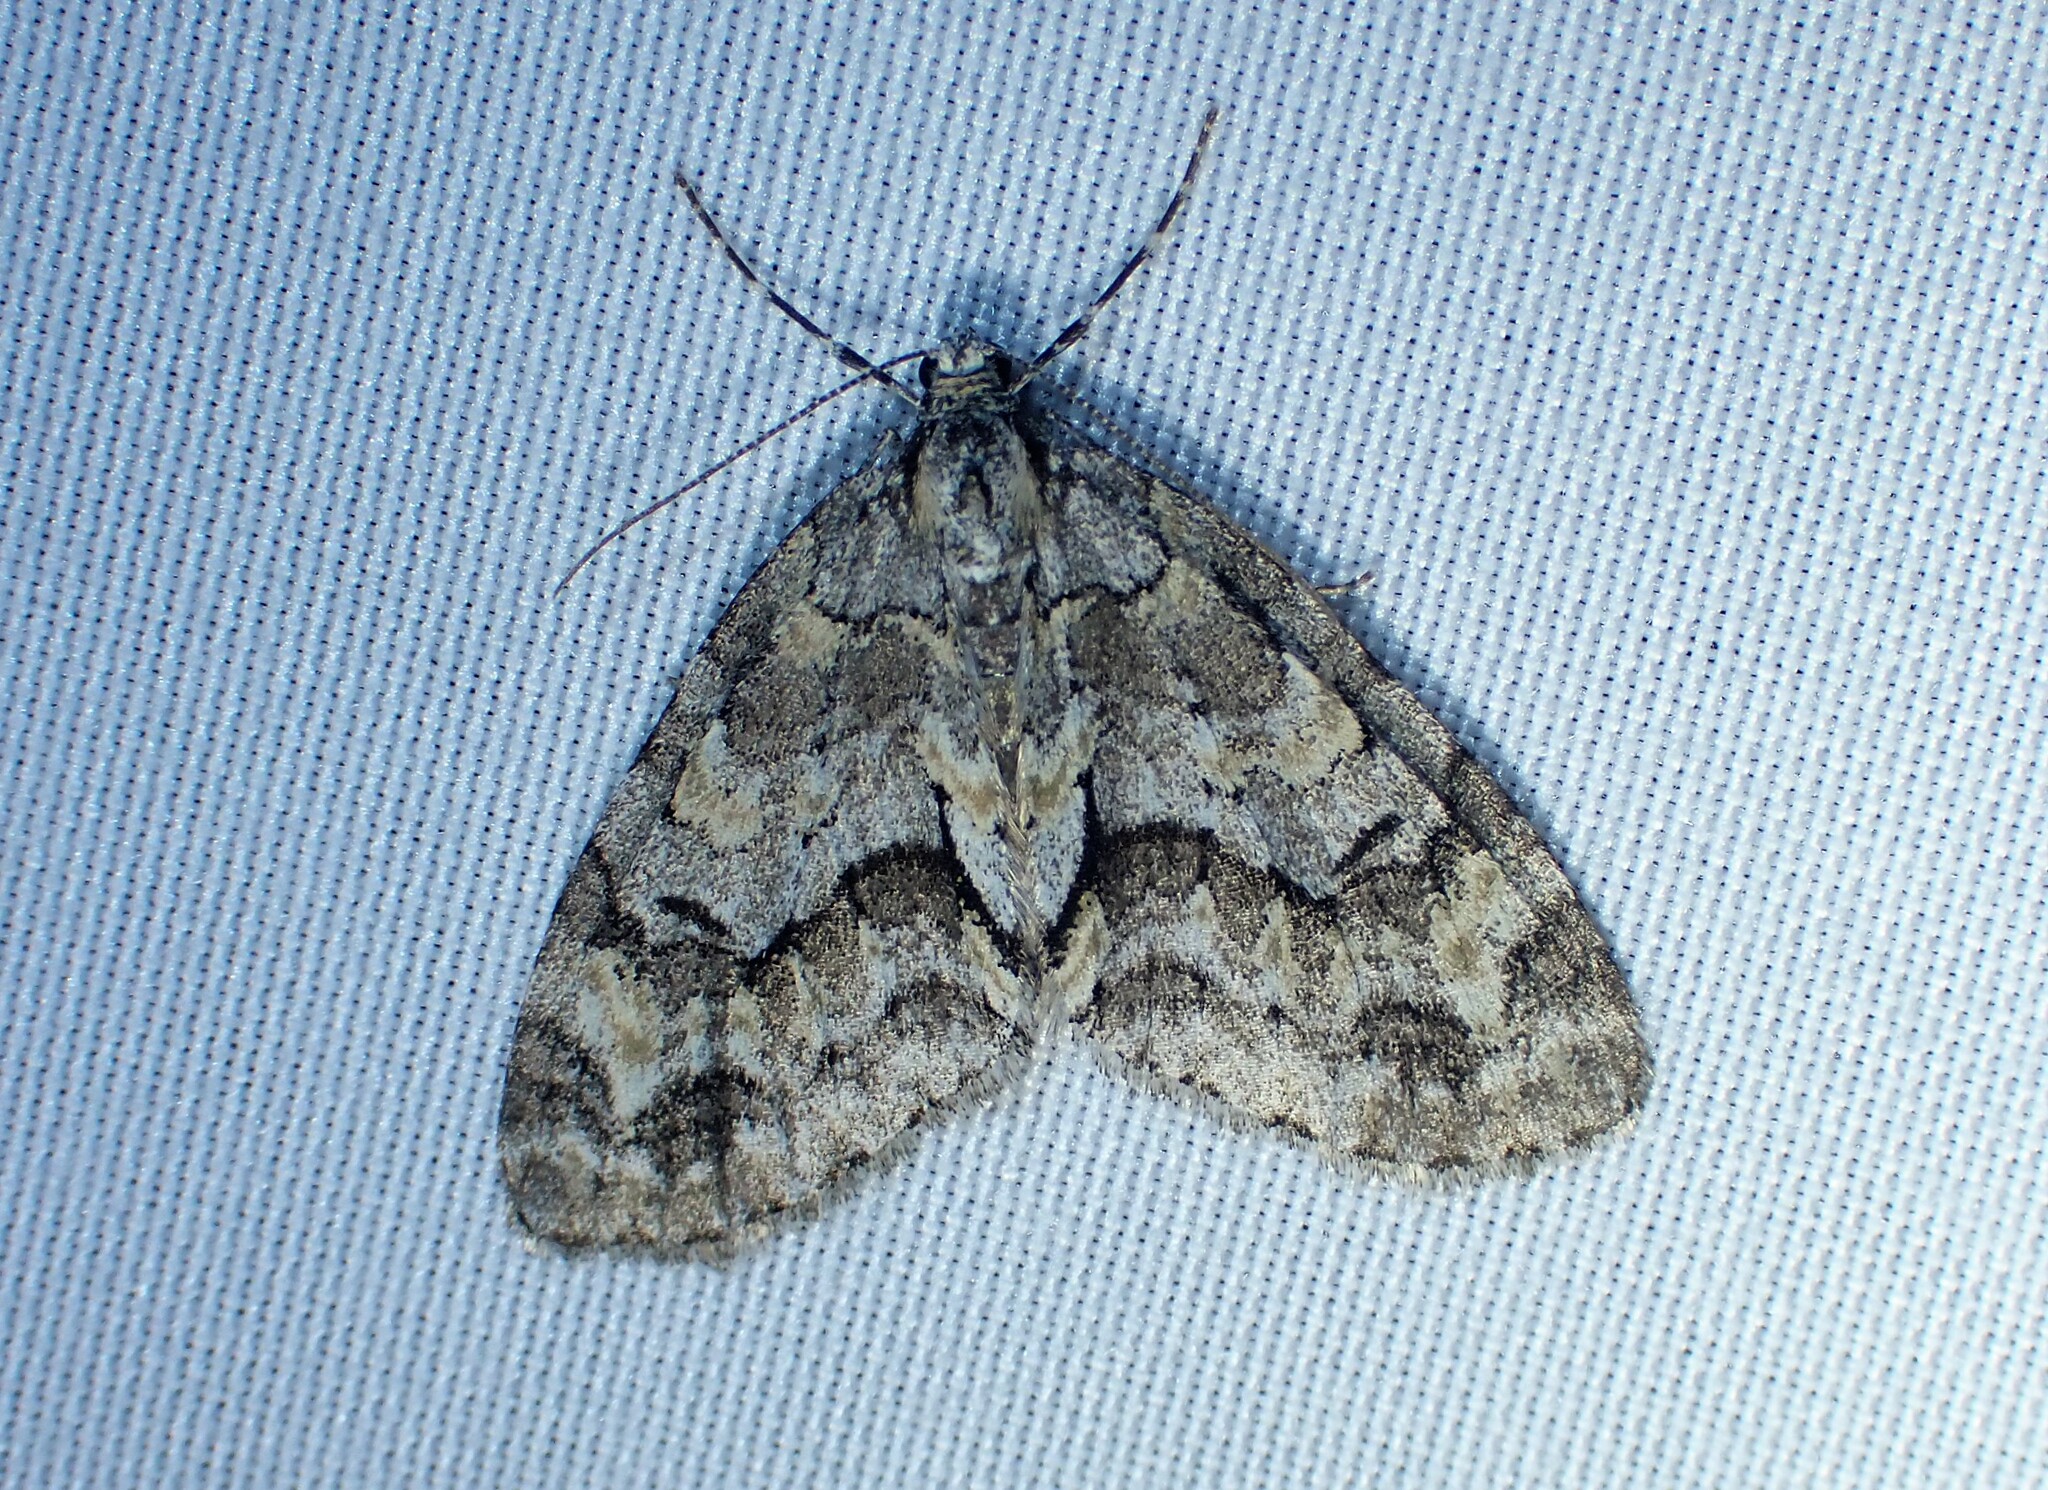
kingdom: Animalia
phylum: Arthropoda
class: Insecta
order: Lepidoptera
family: Geometridae
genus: Cladara
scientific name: Cladara limitaria
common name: Mottled gray carpet
